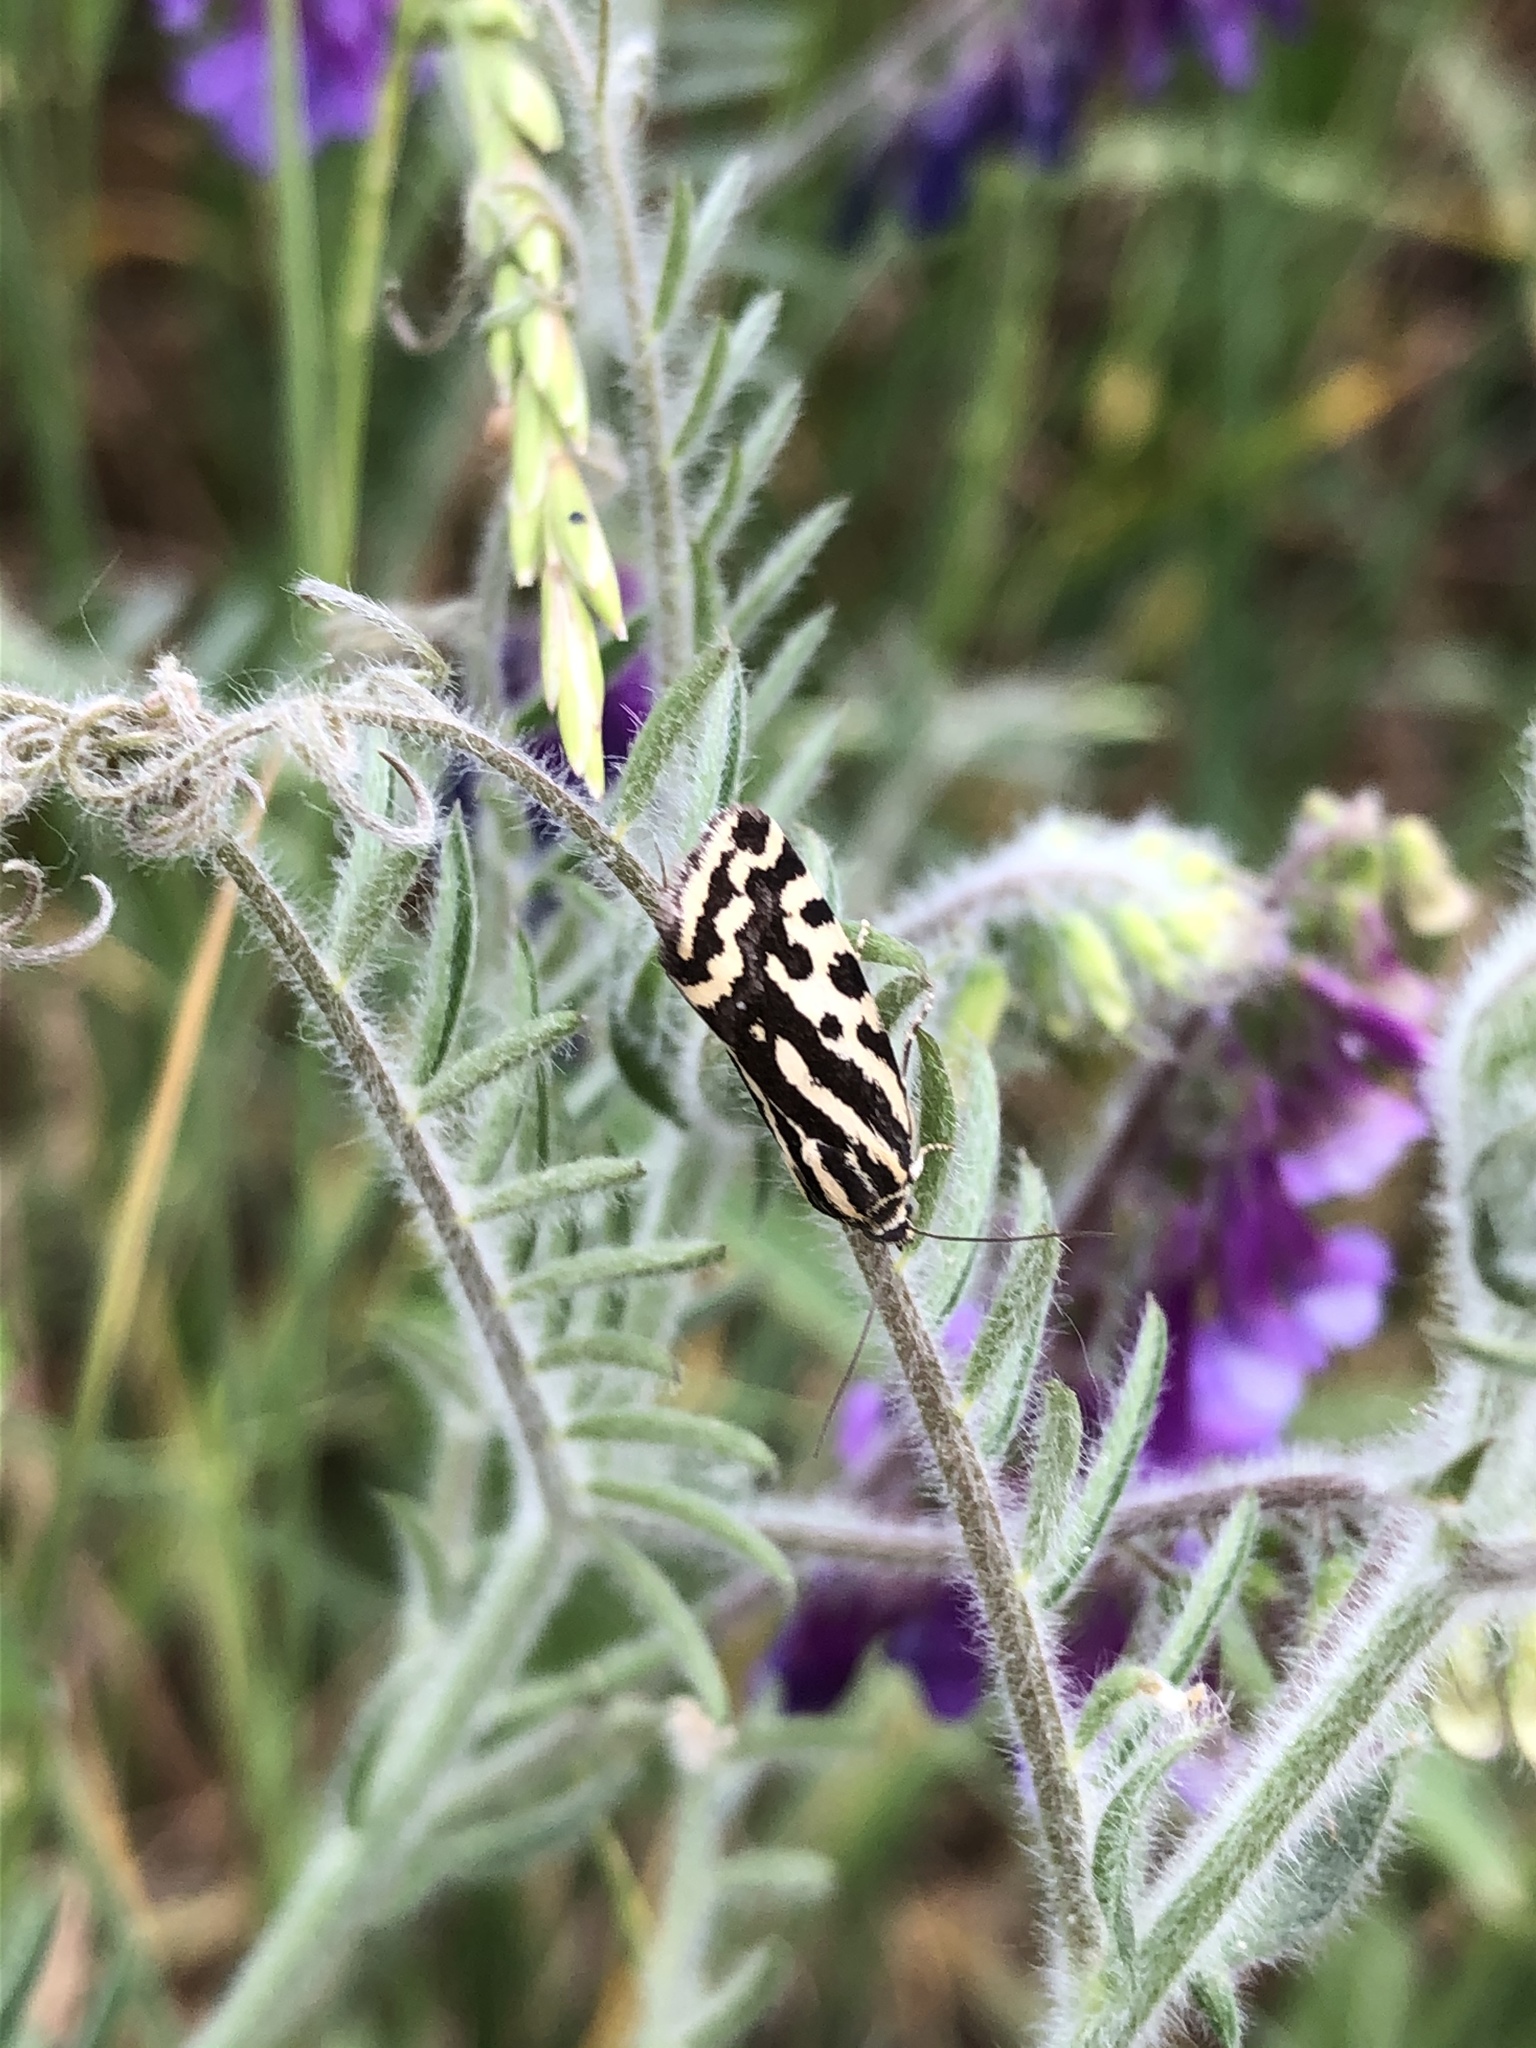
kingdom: Animalia
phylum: Arthropoda
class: Insecta
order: Lepidoptera
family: Noctuidae
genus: Acontia
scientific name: Acontia trabealis
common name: Spotted sulphur
